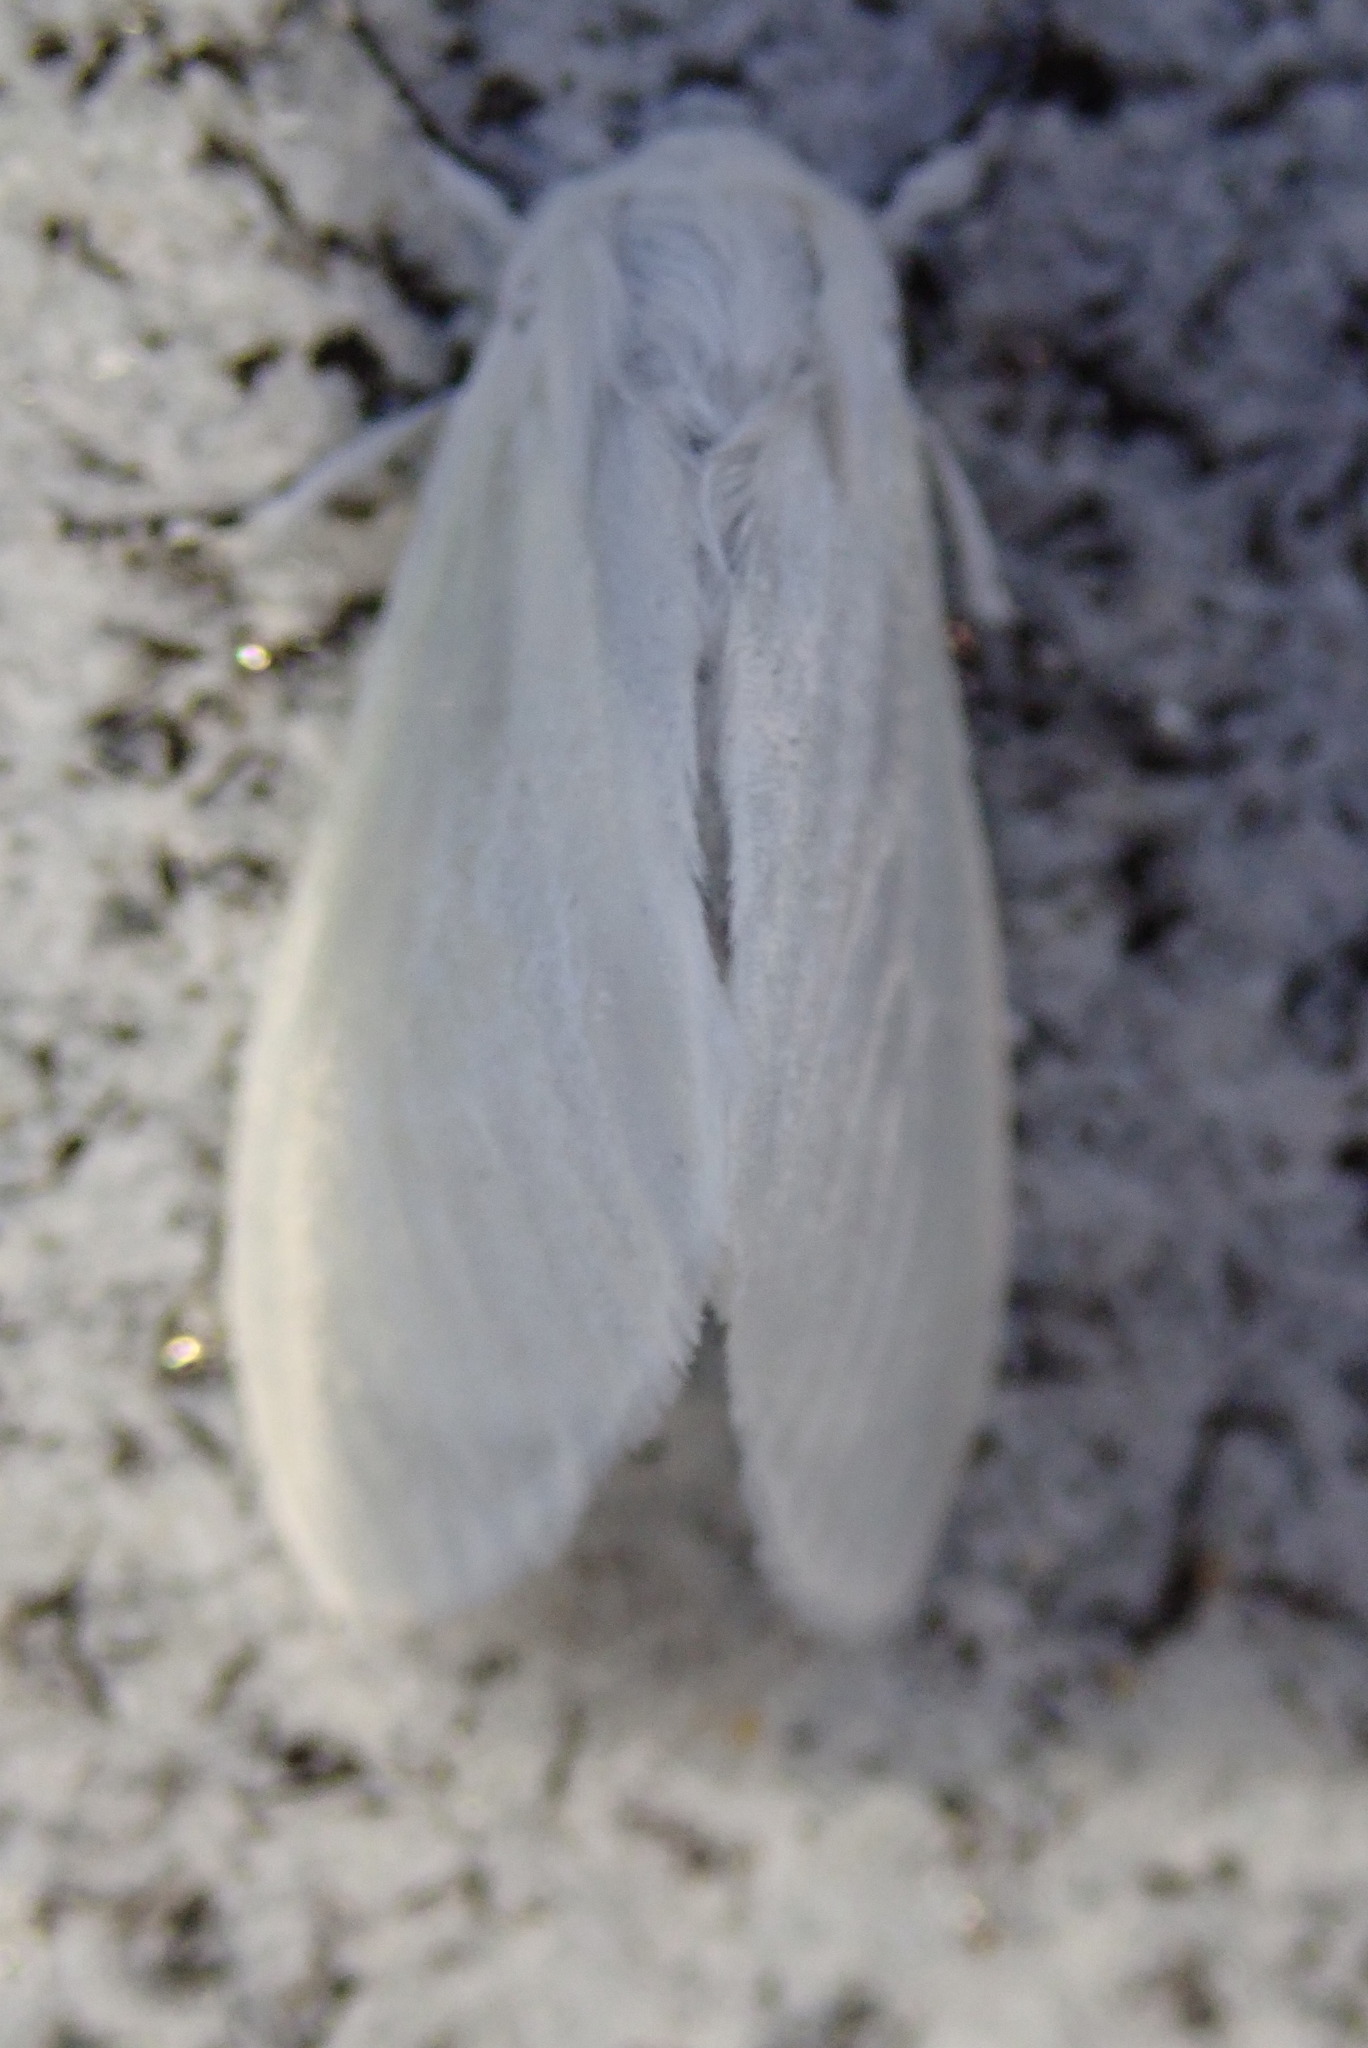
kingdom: Animalia
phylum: Arthropoda
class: Insecta
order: Lepidoptera
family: Erebidae
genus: Leucoma
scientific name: Leucoma salicis
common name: White satin moth
